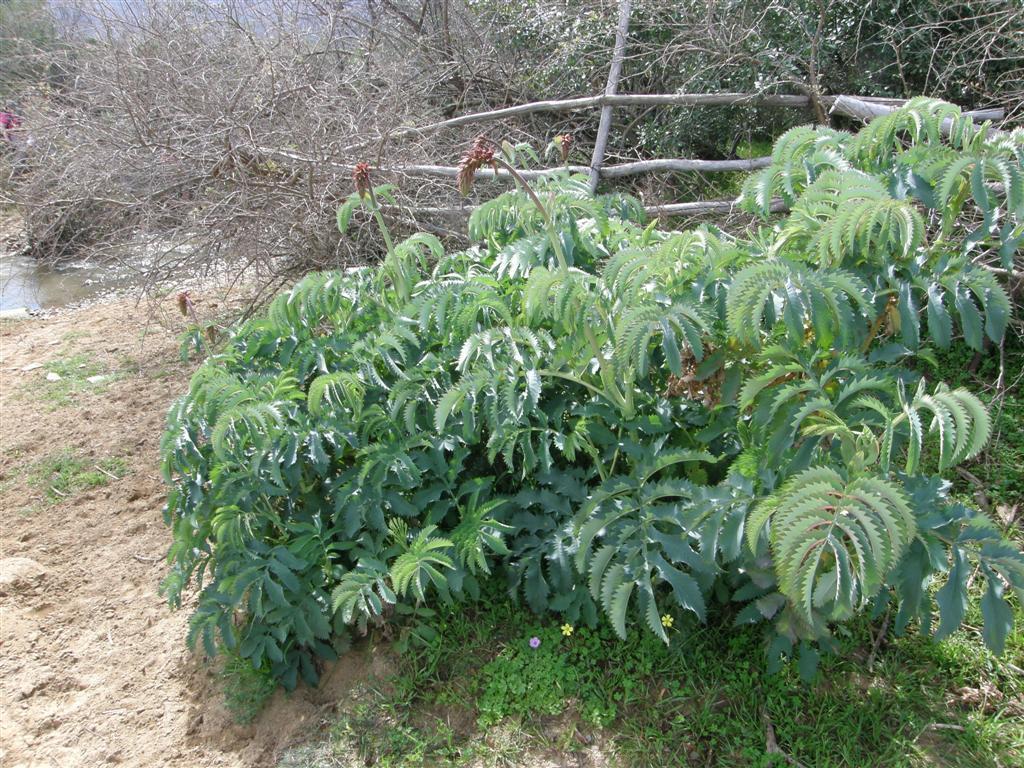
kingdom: Plantae
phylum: Tracheophyta
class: Magnoliopsida
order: Geraniales
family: Melianthaceae
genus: Melianthus
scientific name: Melianthus major
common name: Honey-flower
